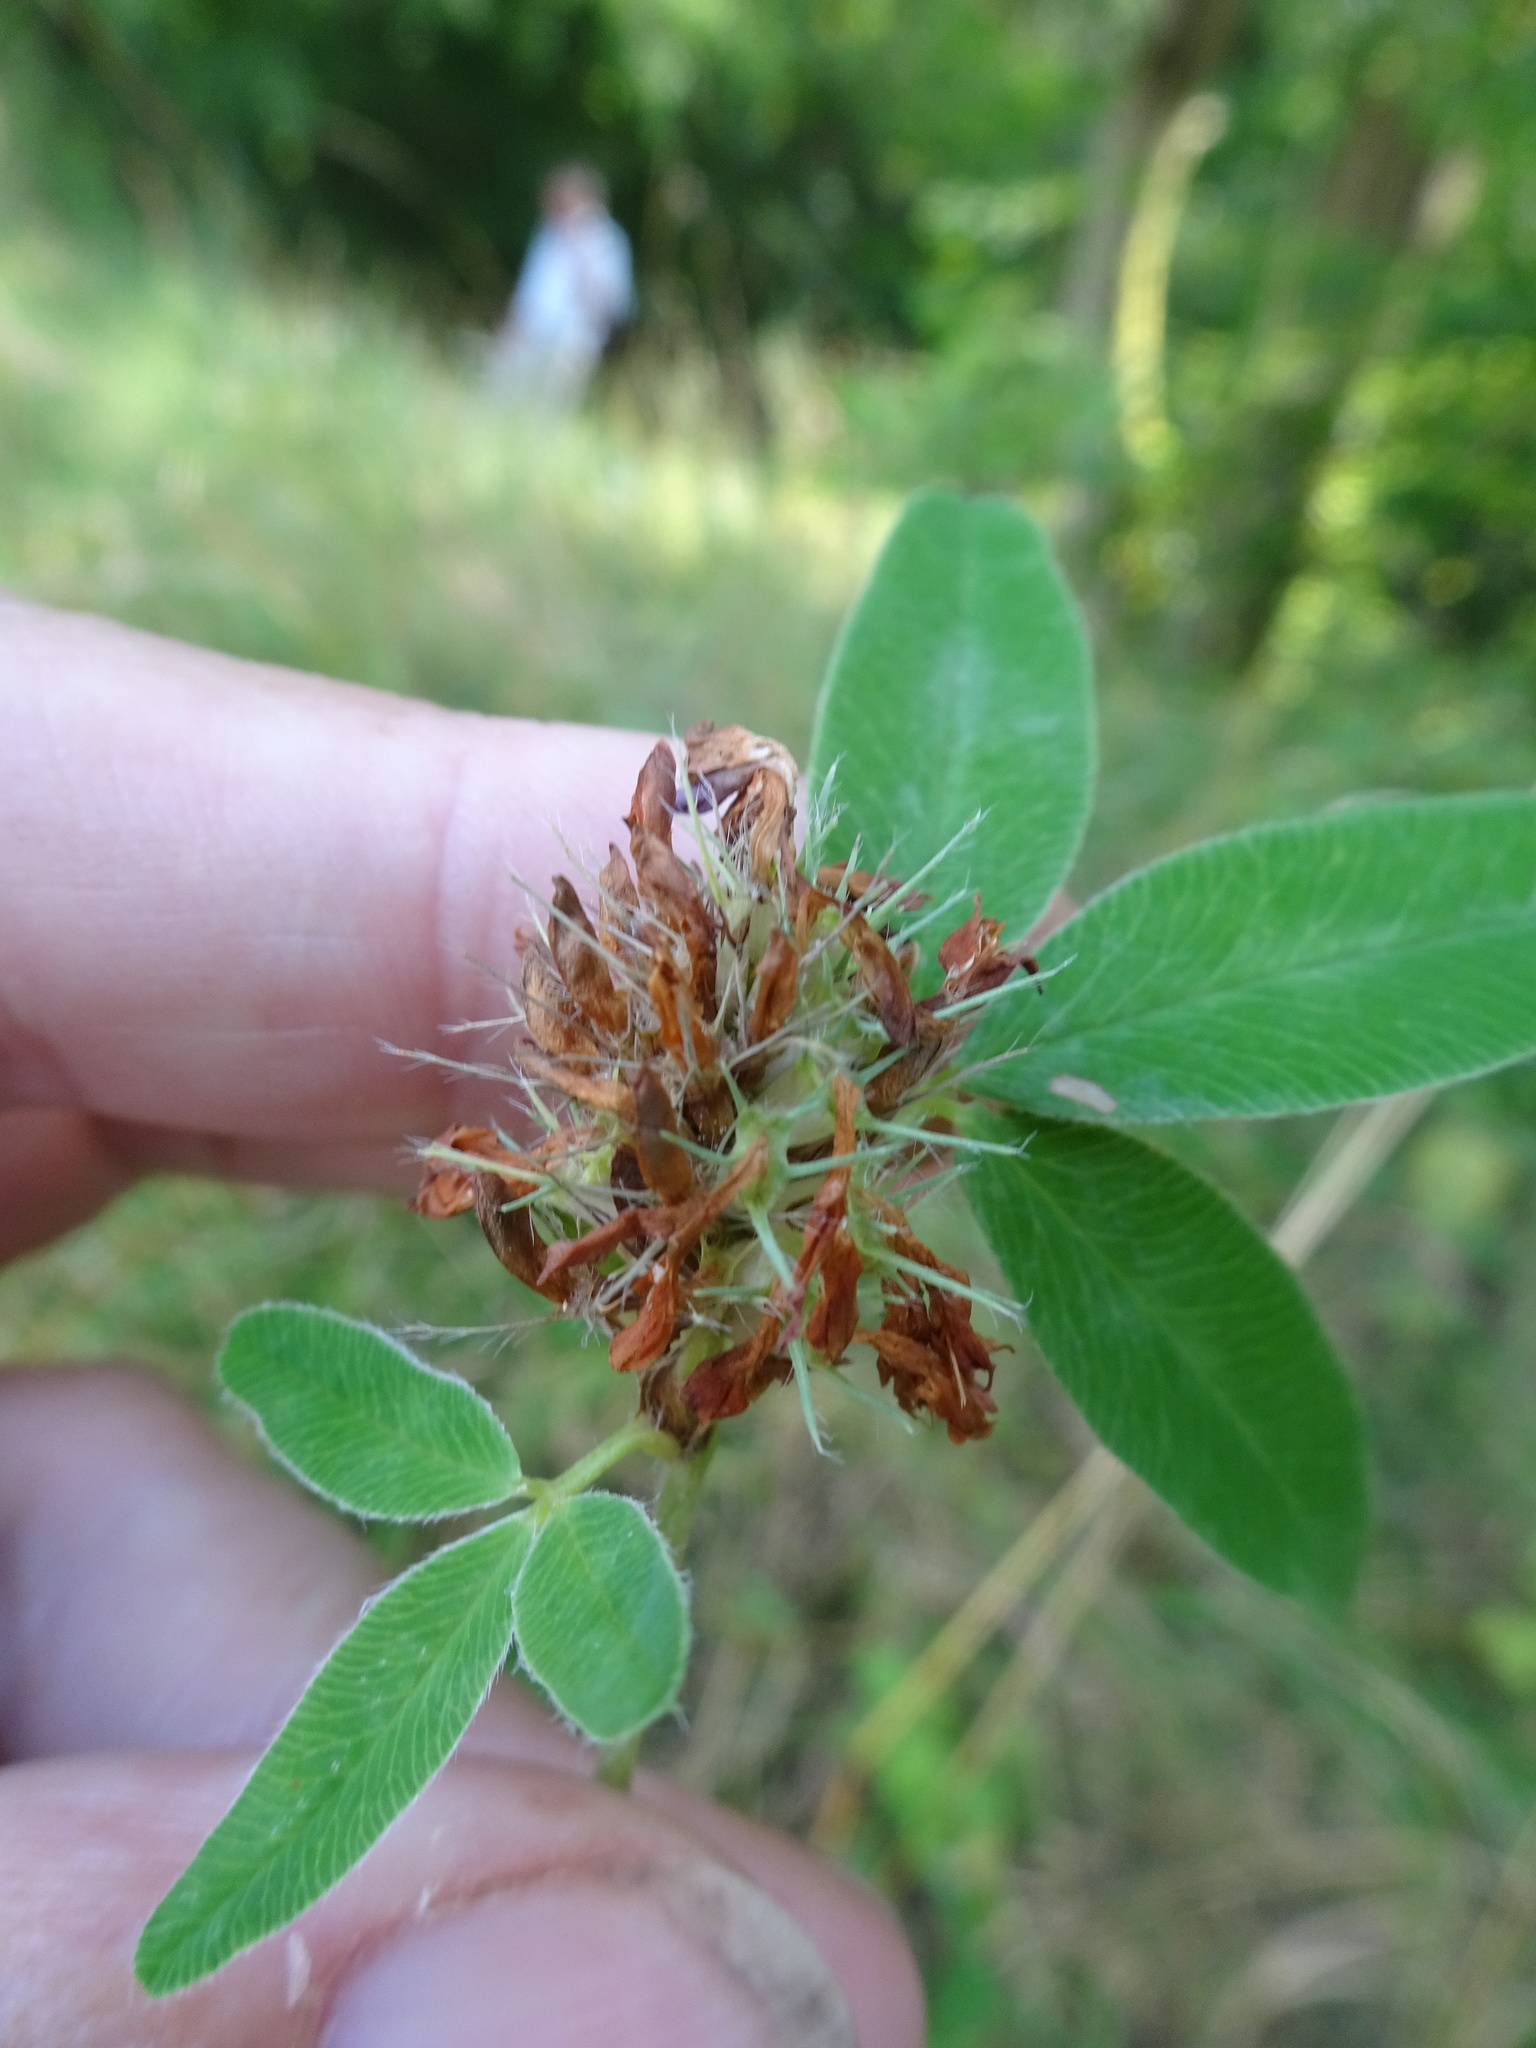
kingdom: Plantae
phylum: Tracheophyta
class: Magnoliopsida
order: Fabales
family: Fabaceae
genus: Trifolium
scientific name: Trifolium medium
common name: Zigzag clover
